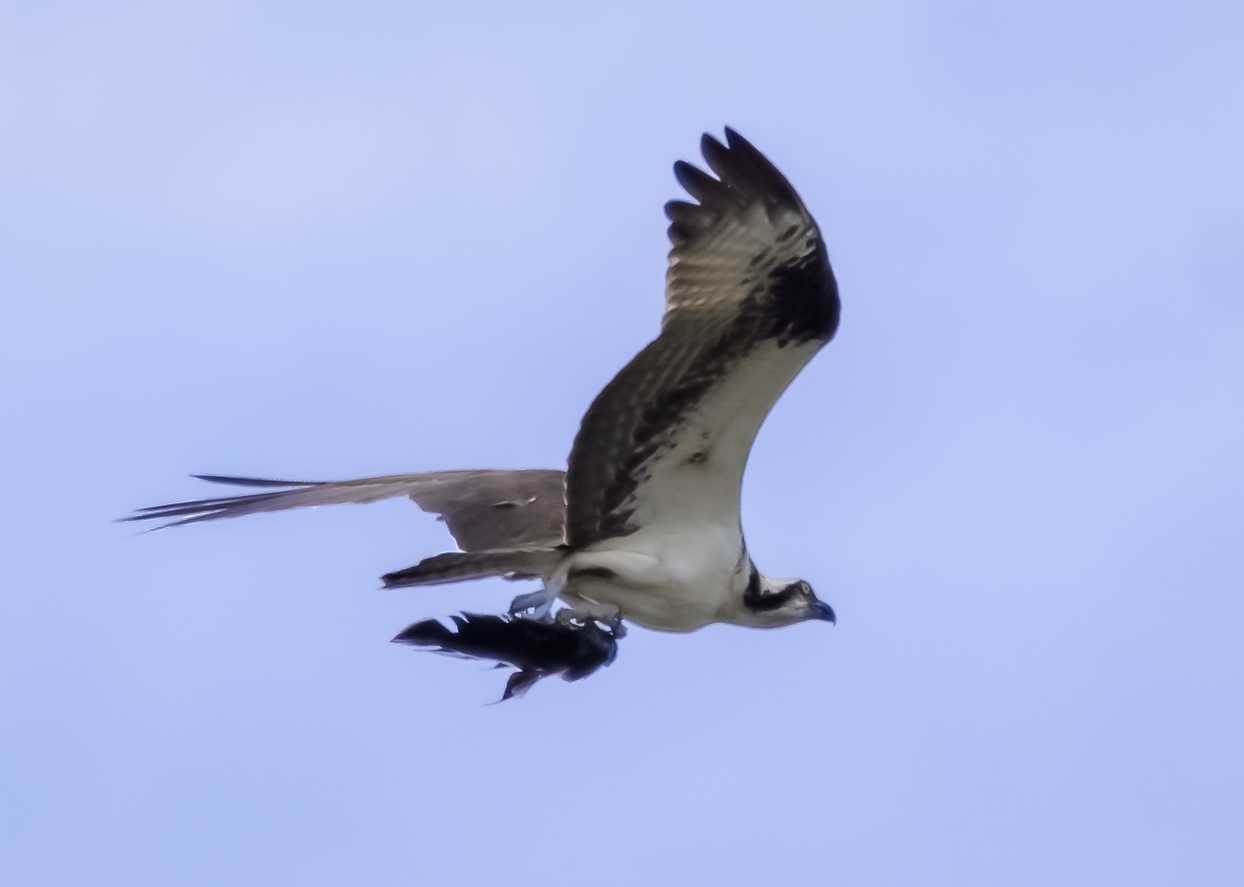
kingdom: Animalia
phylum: Chordata
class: Aves
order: Accipitriformes
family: Pandionidae
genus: Pandion
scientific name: Pandion haliaetus
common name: Osprey
